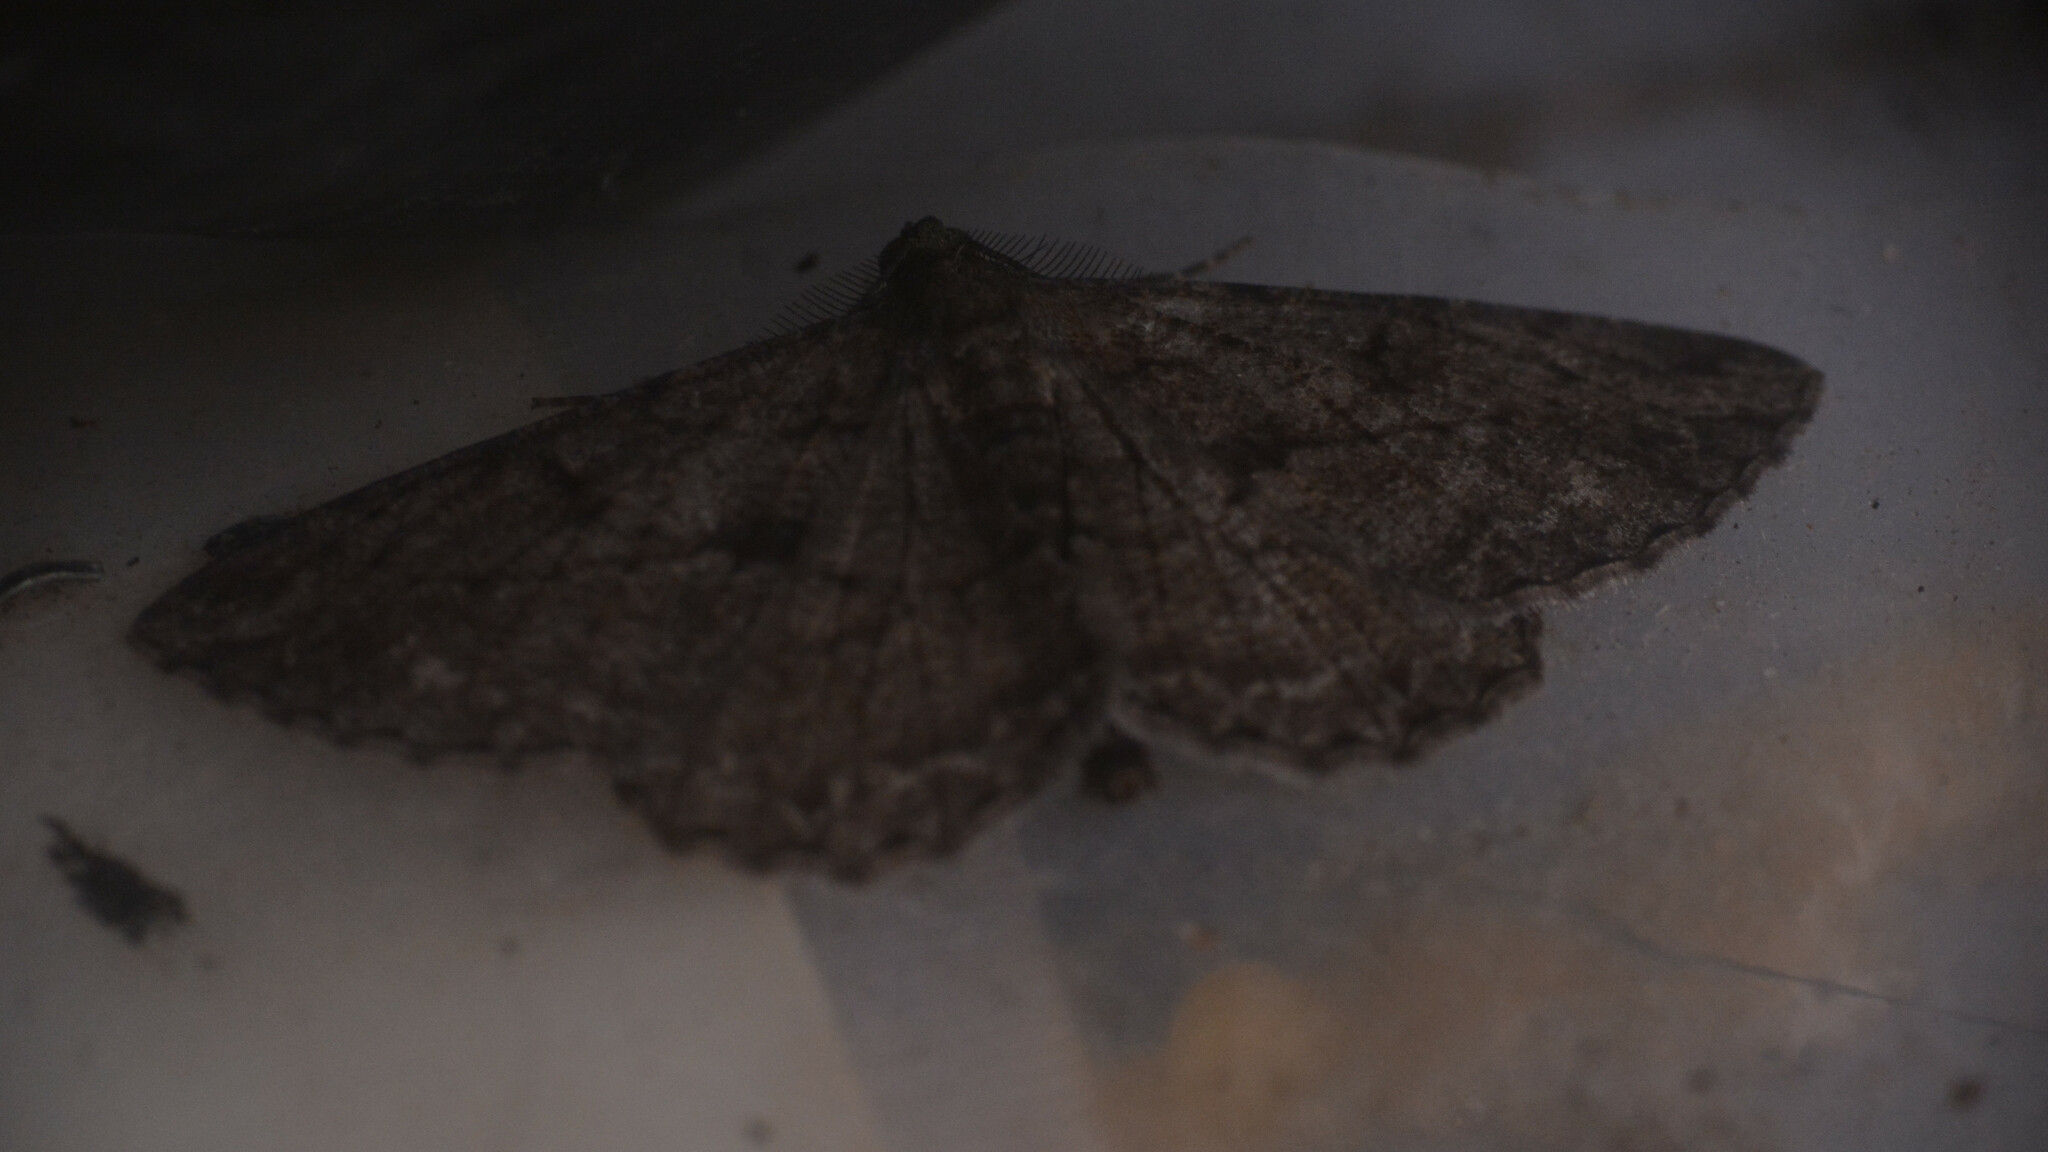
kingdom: Animalia
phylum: Arthropoda
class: Insecta
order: Lepidoptera
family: Geometridae
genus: Peribatodes
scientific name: Peribatodes rhomboidaria
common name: Willow beauty
